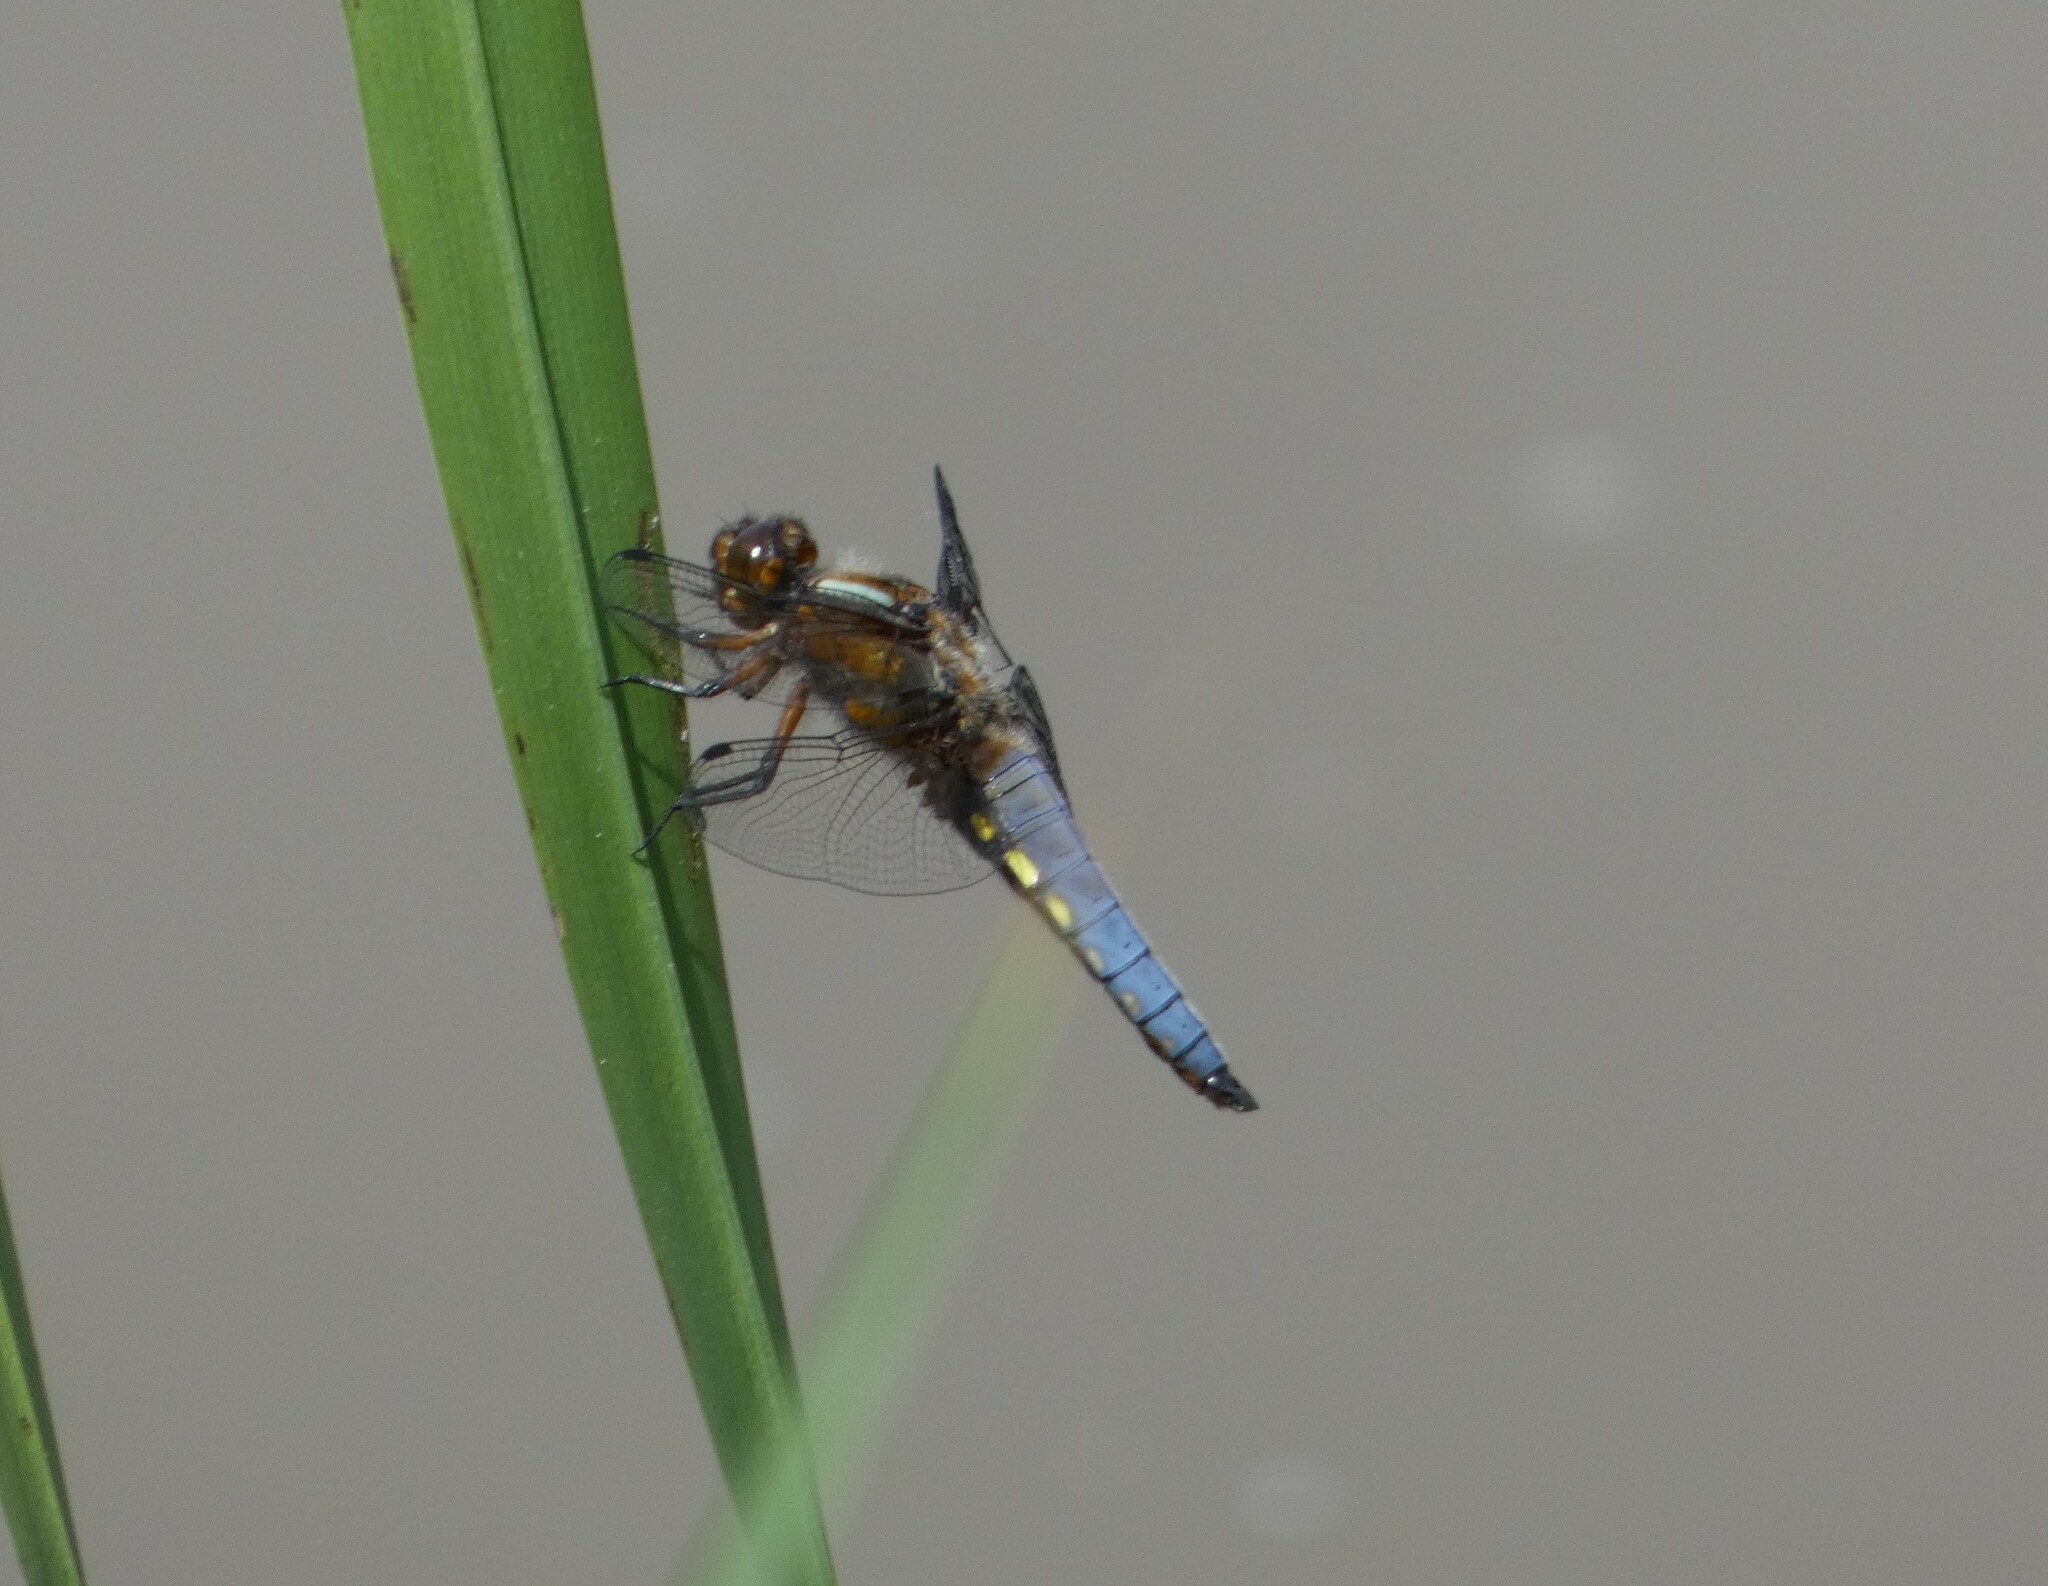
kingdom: Animalia
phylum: Arthropoda
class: Insecta
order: Odonata
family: Libellulidae
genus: Libellula
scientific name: Libellula depressa
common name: Broad-bodied chaser
